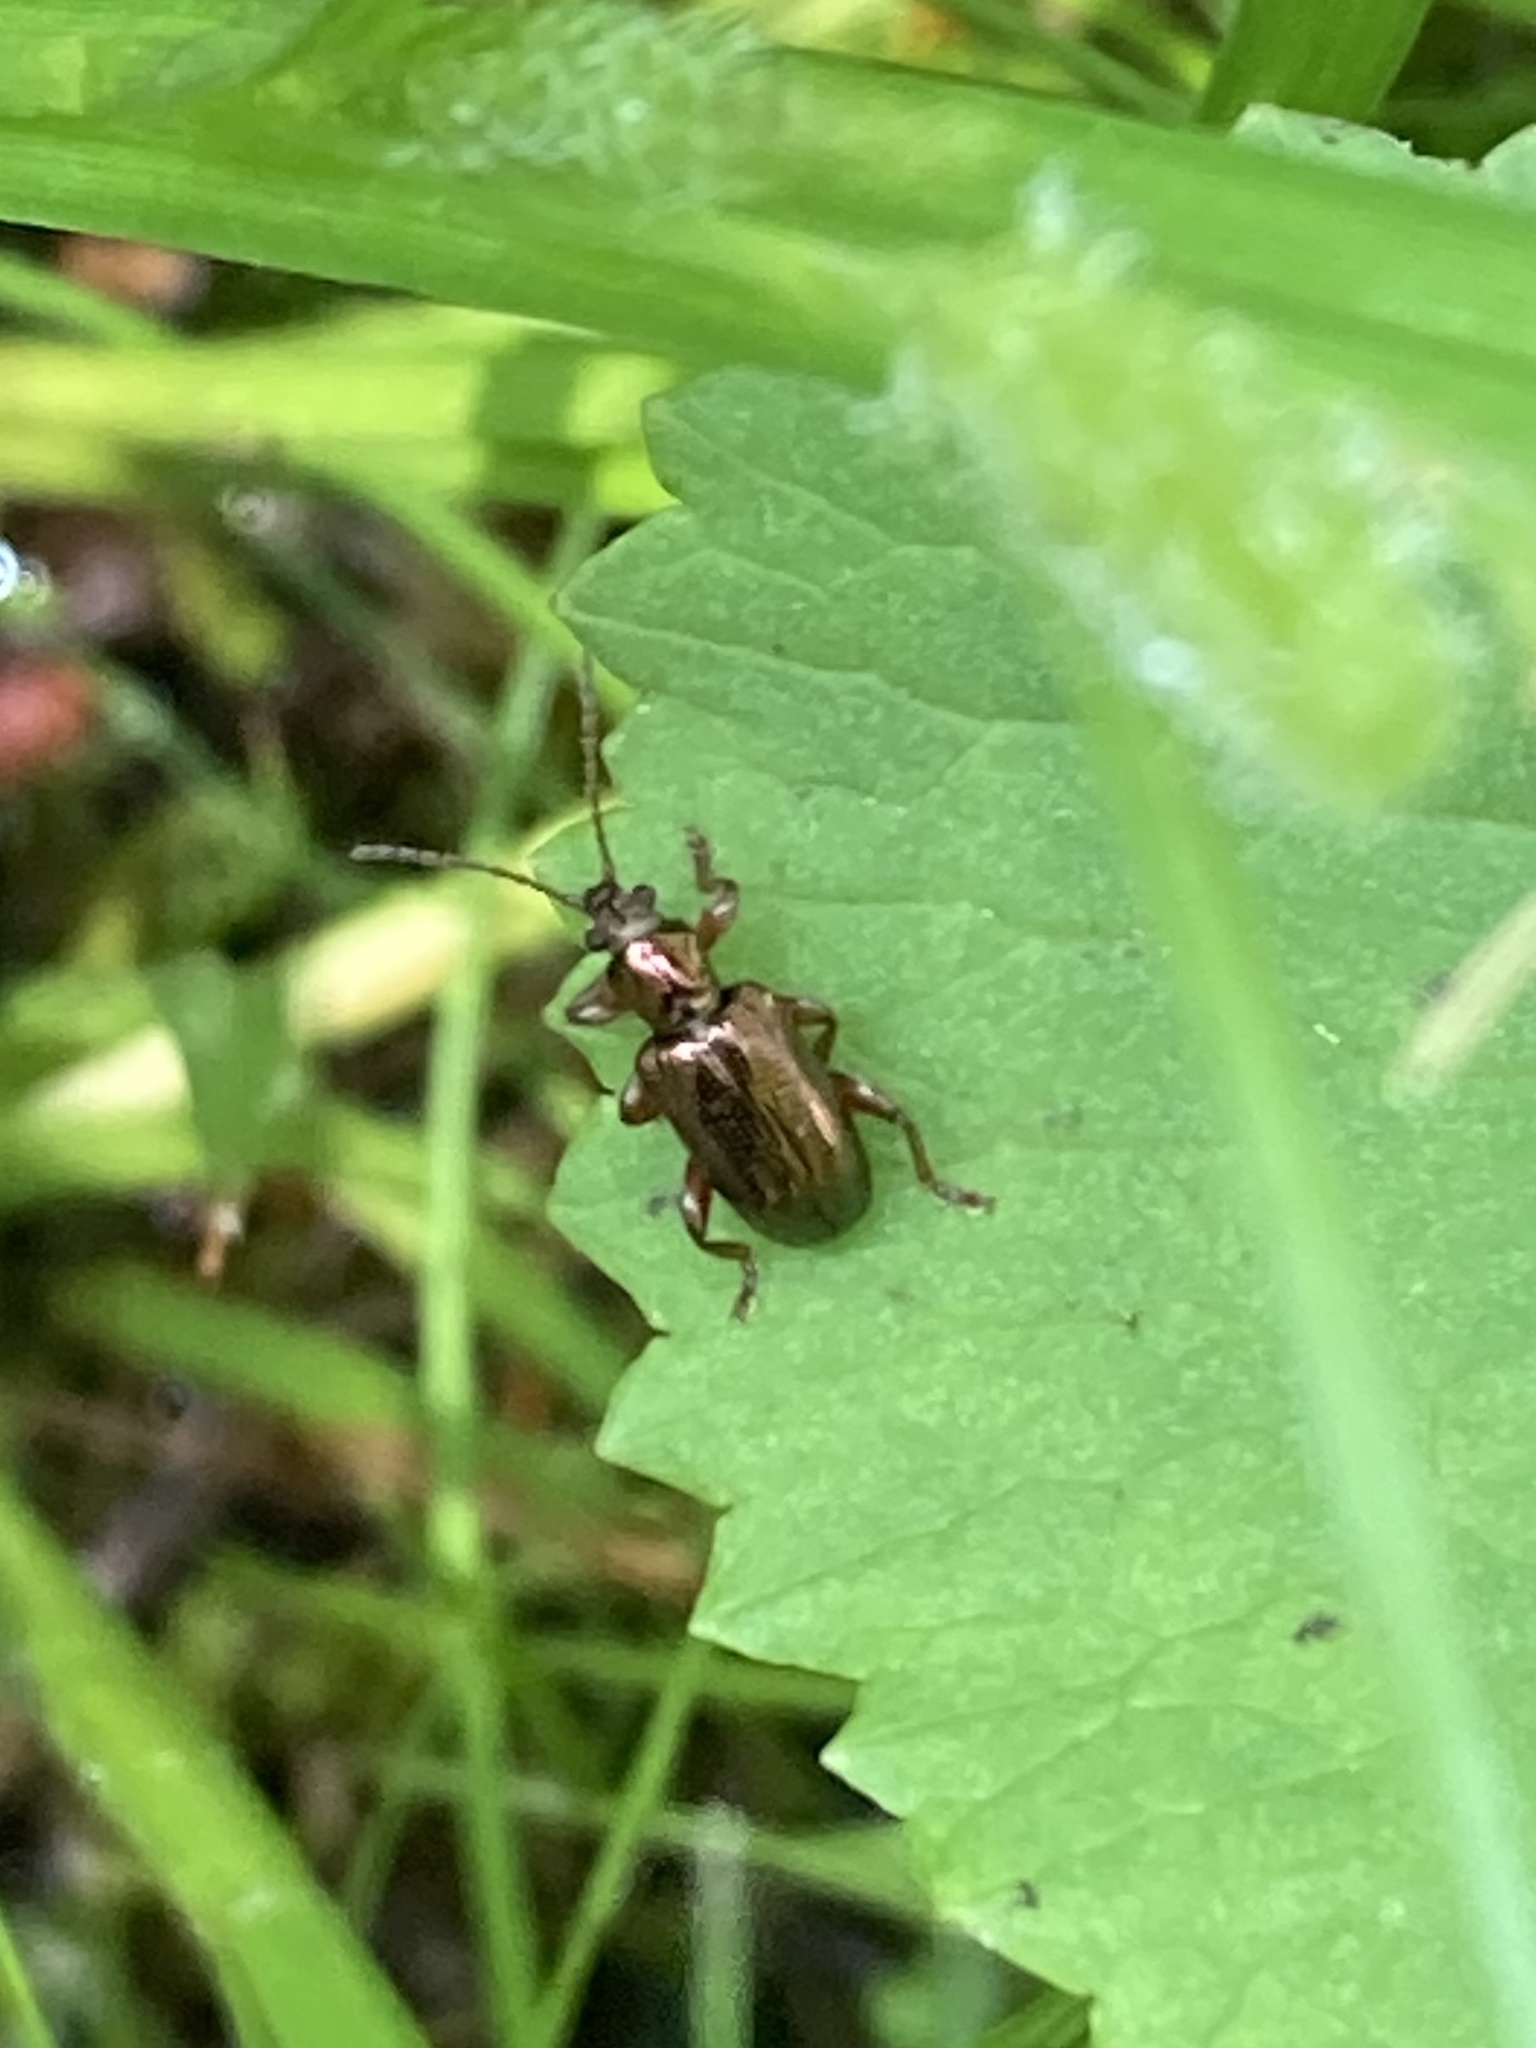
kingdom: Animalia
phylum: Arthropoda
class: Insecta
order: Coleoptera
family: Chrysomelidae
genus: Plateumaris
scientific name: Plateumaris rufa
